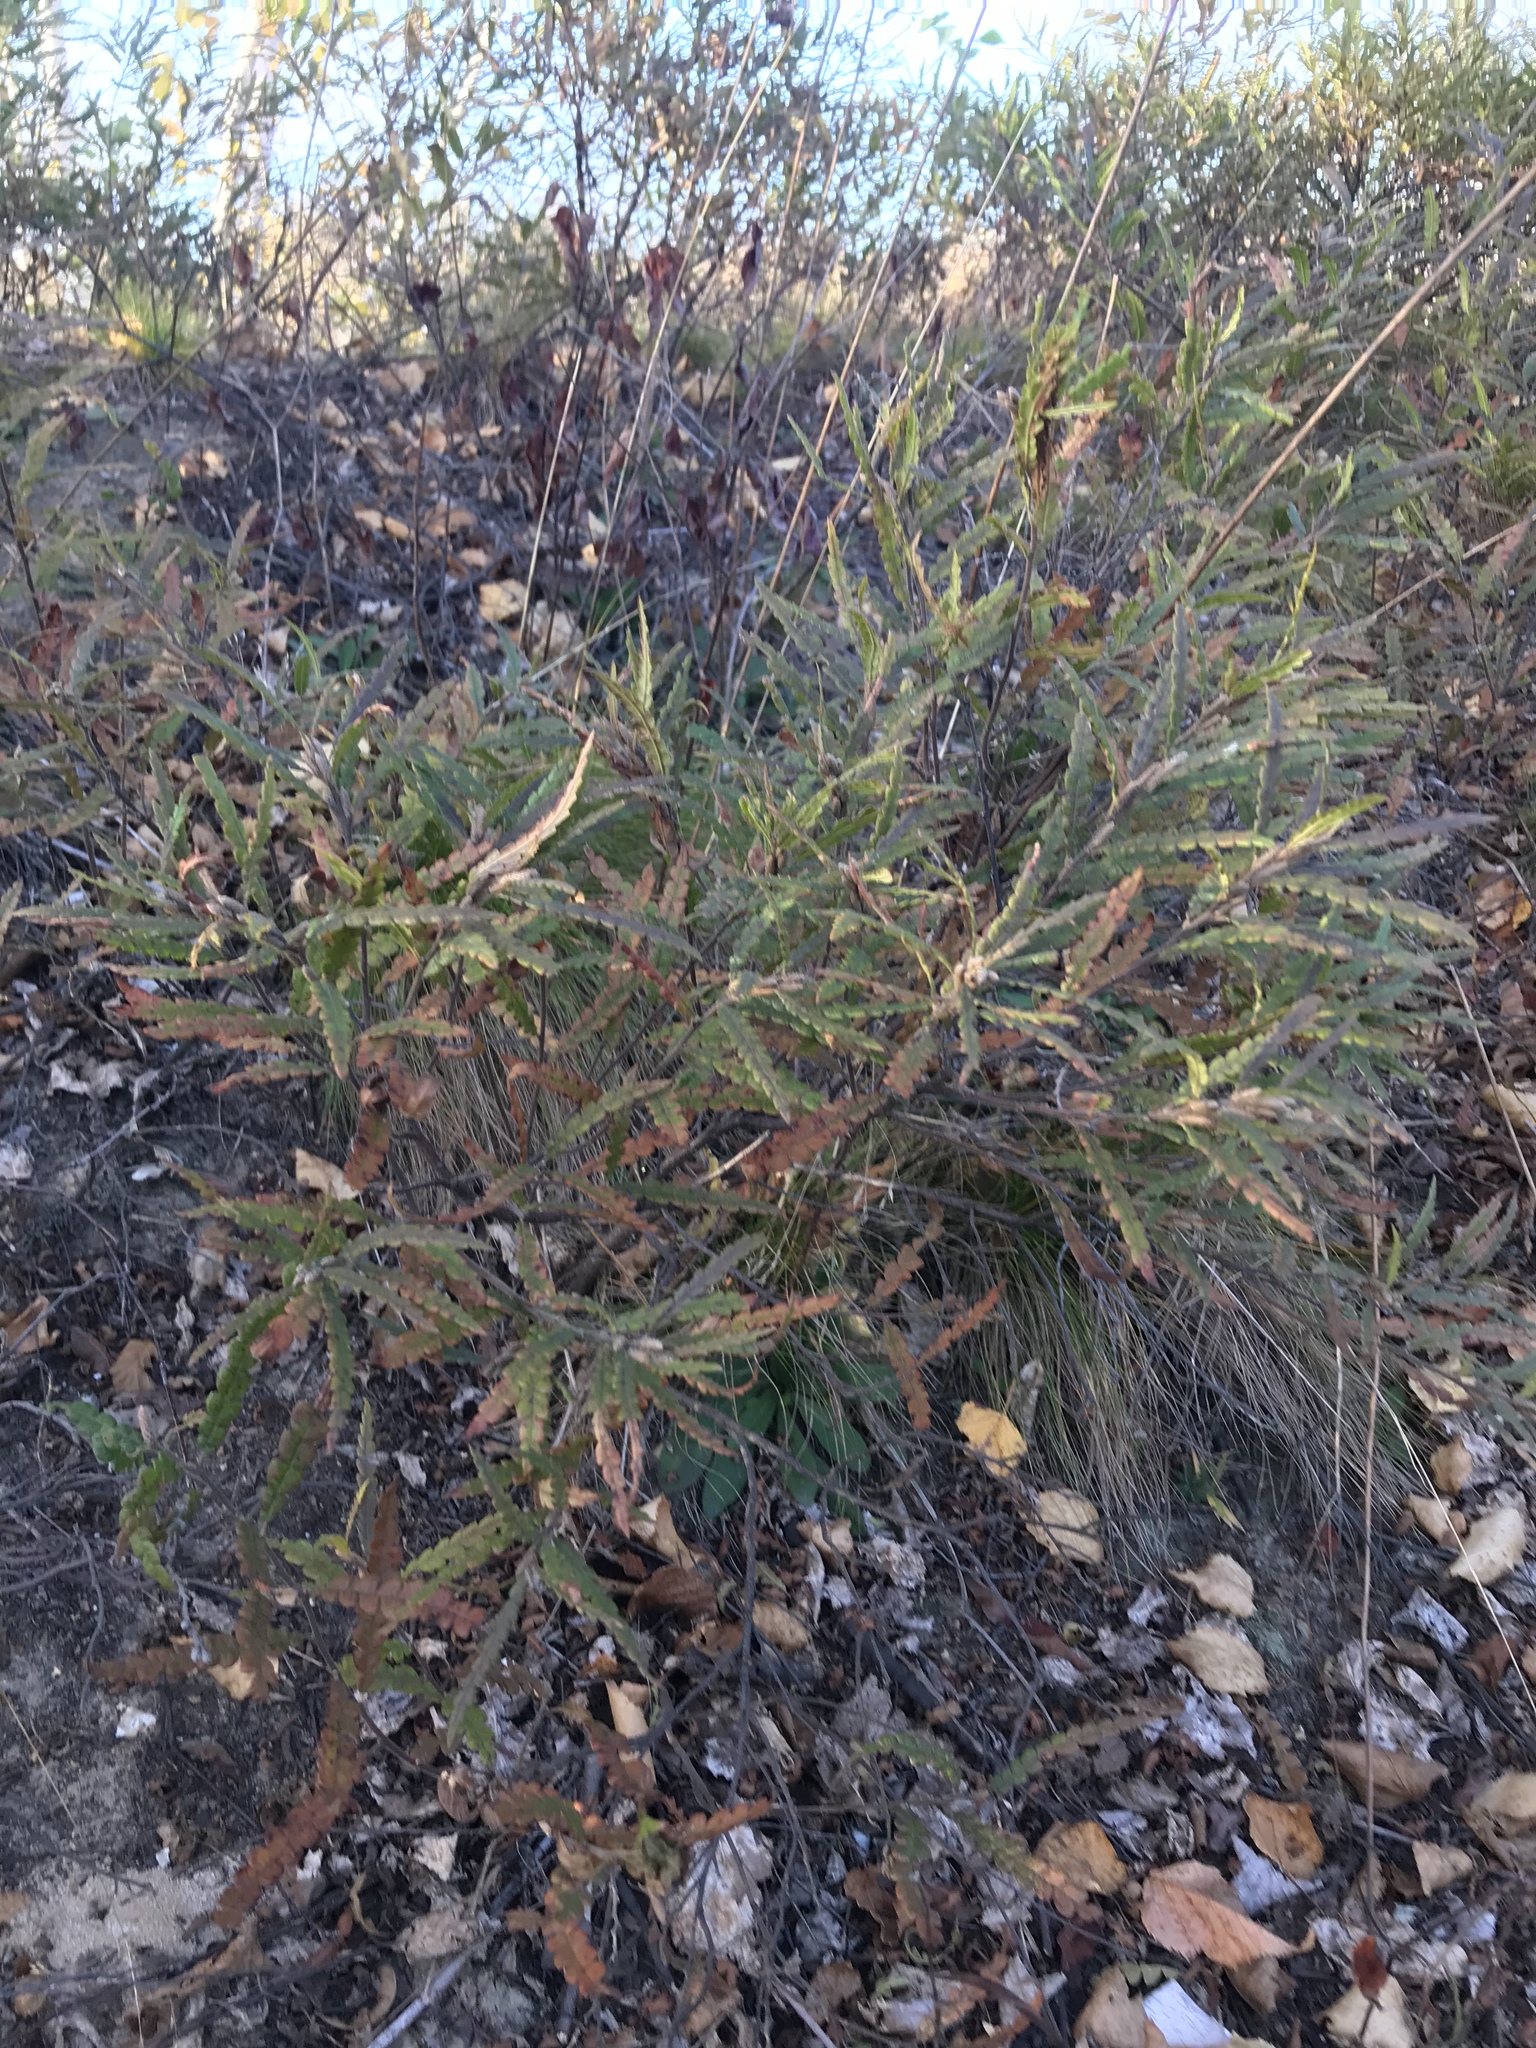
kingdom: Plantae
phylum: Tracheophyta
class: Magnoliopsida
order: Fagales
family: Myricaceae
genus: Comptonia
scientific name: Comptonia peregrina
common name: Sweet-fern
